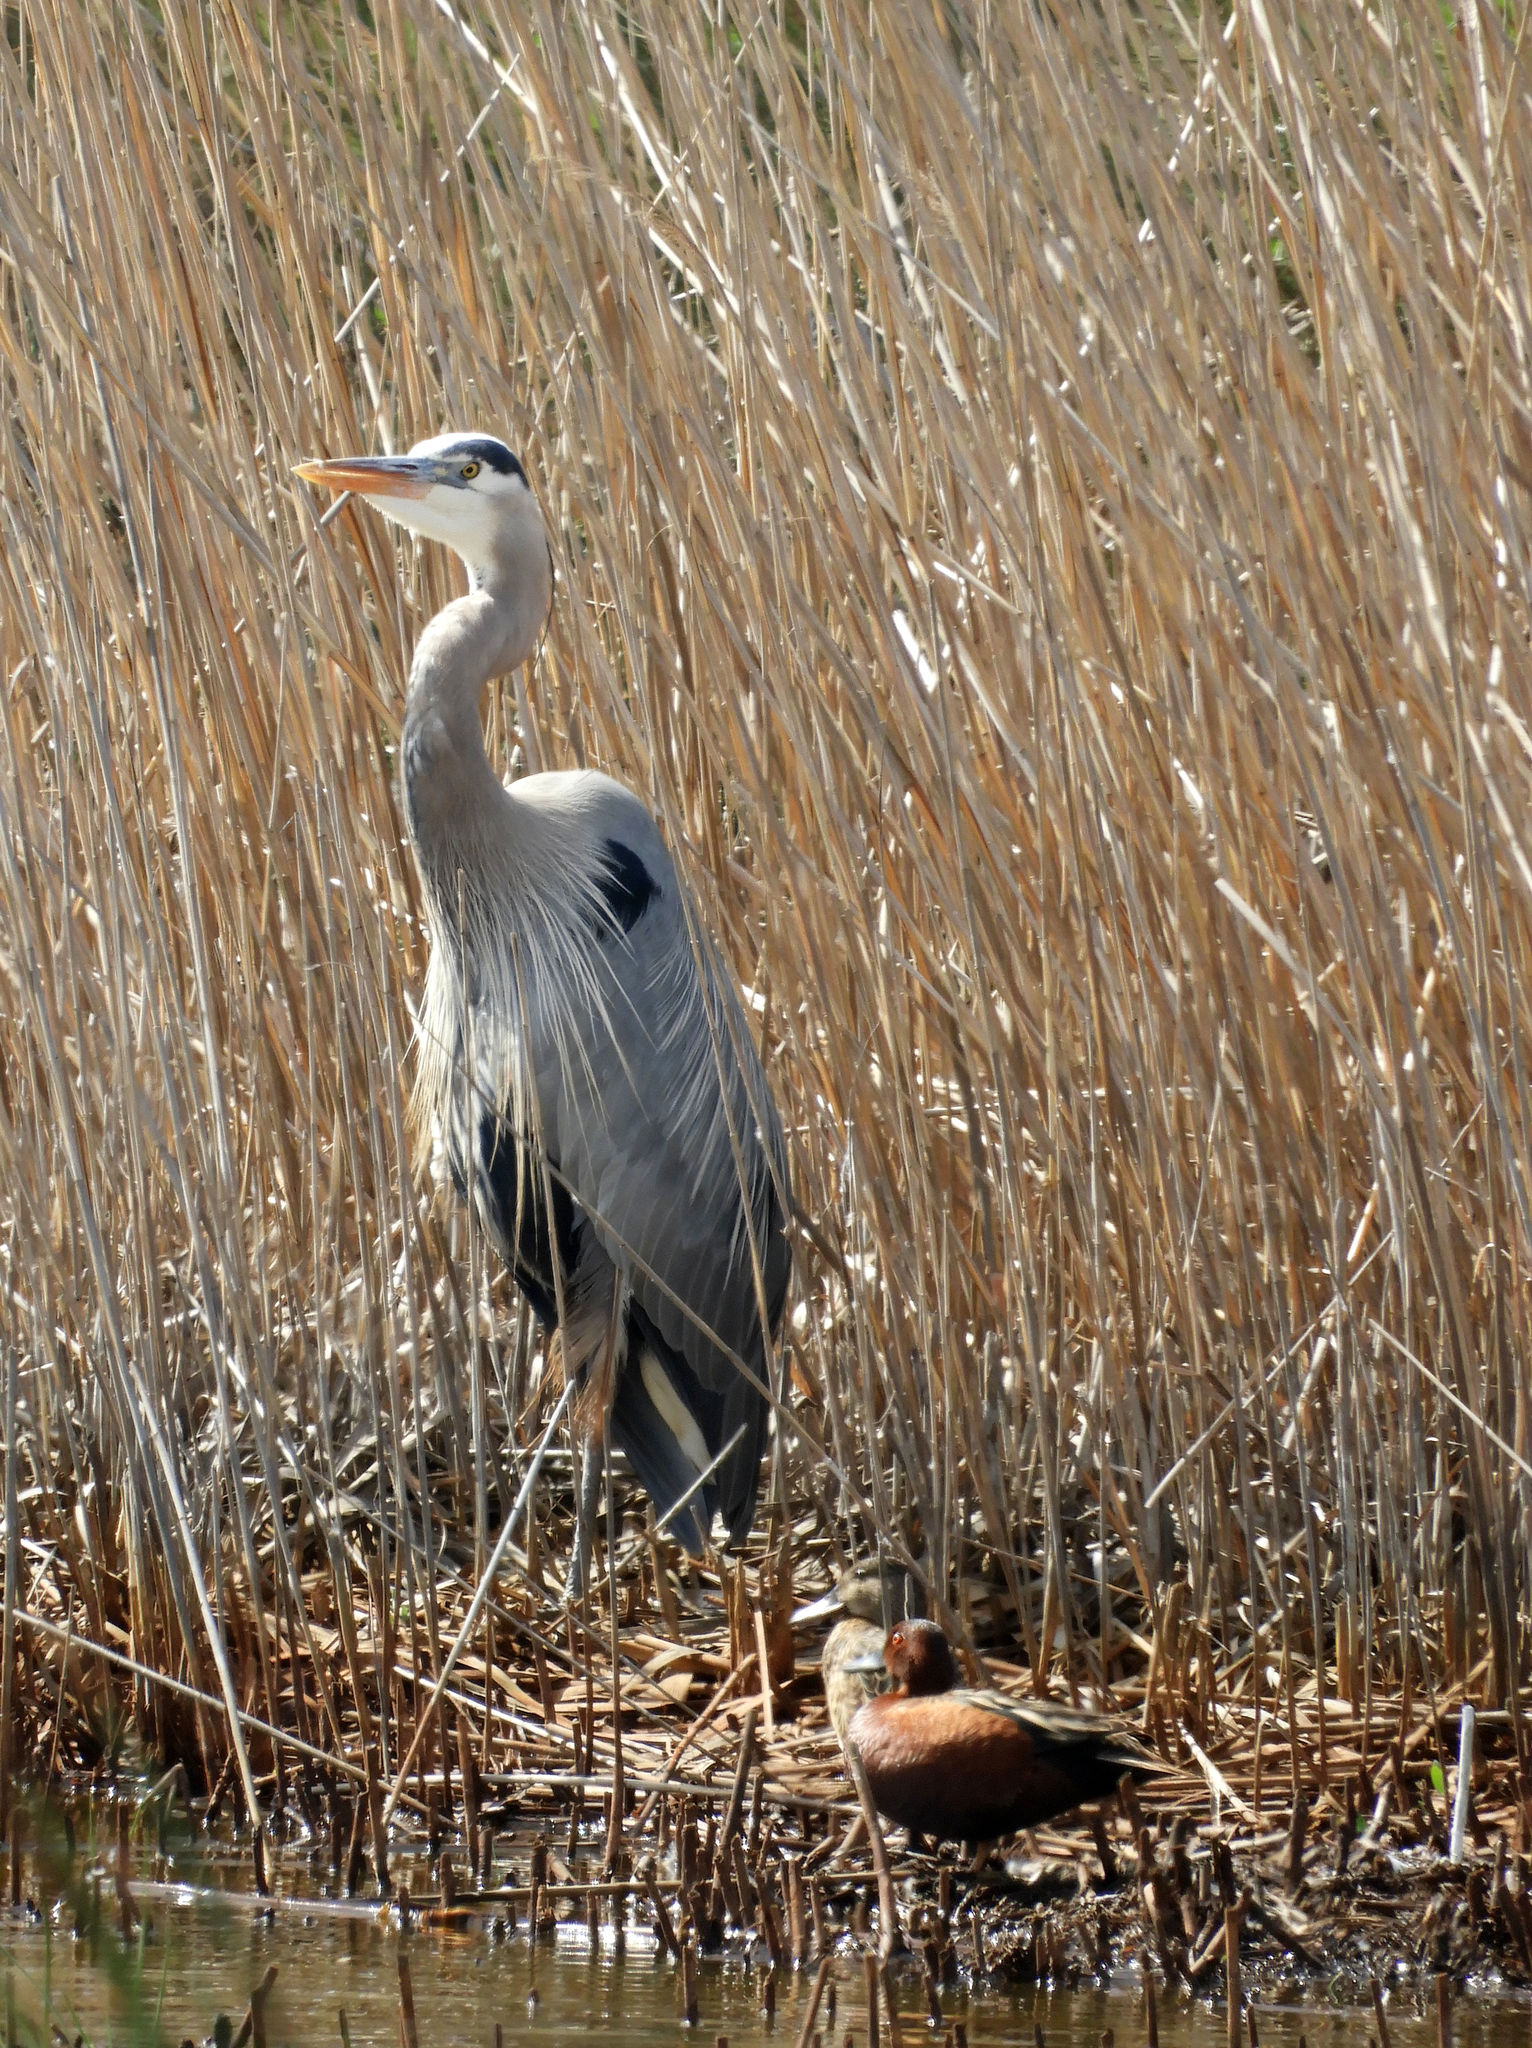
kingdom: Animalia
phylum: Chordata
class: Aves
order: Pelecaniformes
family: Ardeidae
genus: Ardea
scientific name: Ardea herodias
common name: Great blue heron
